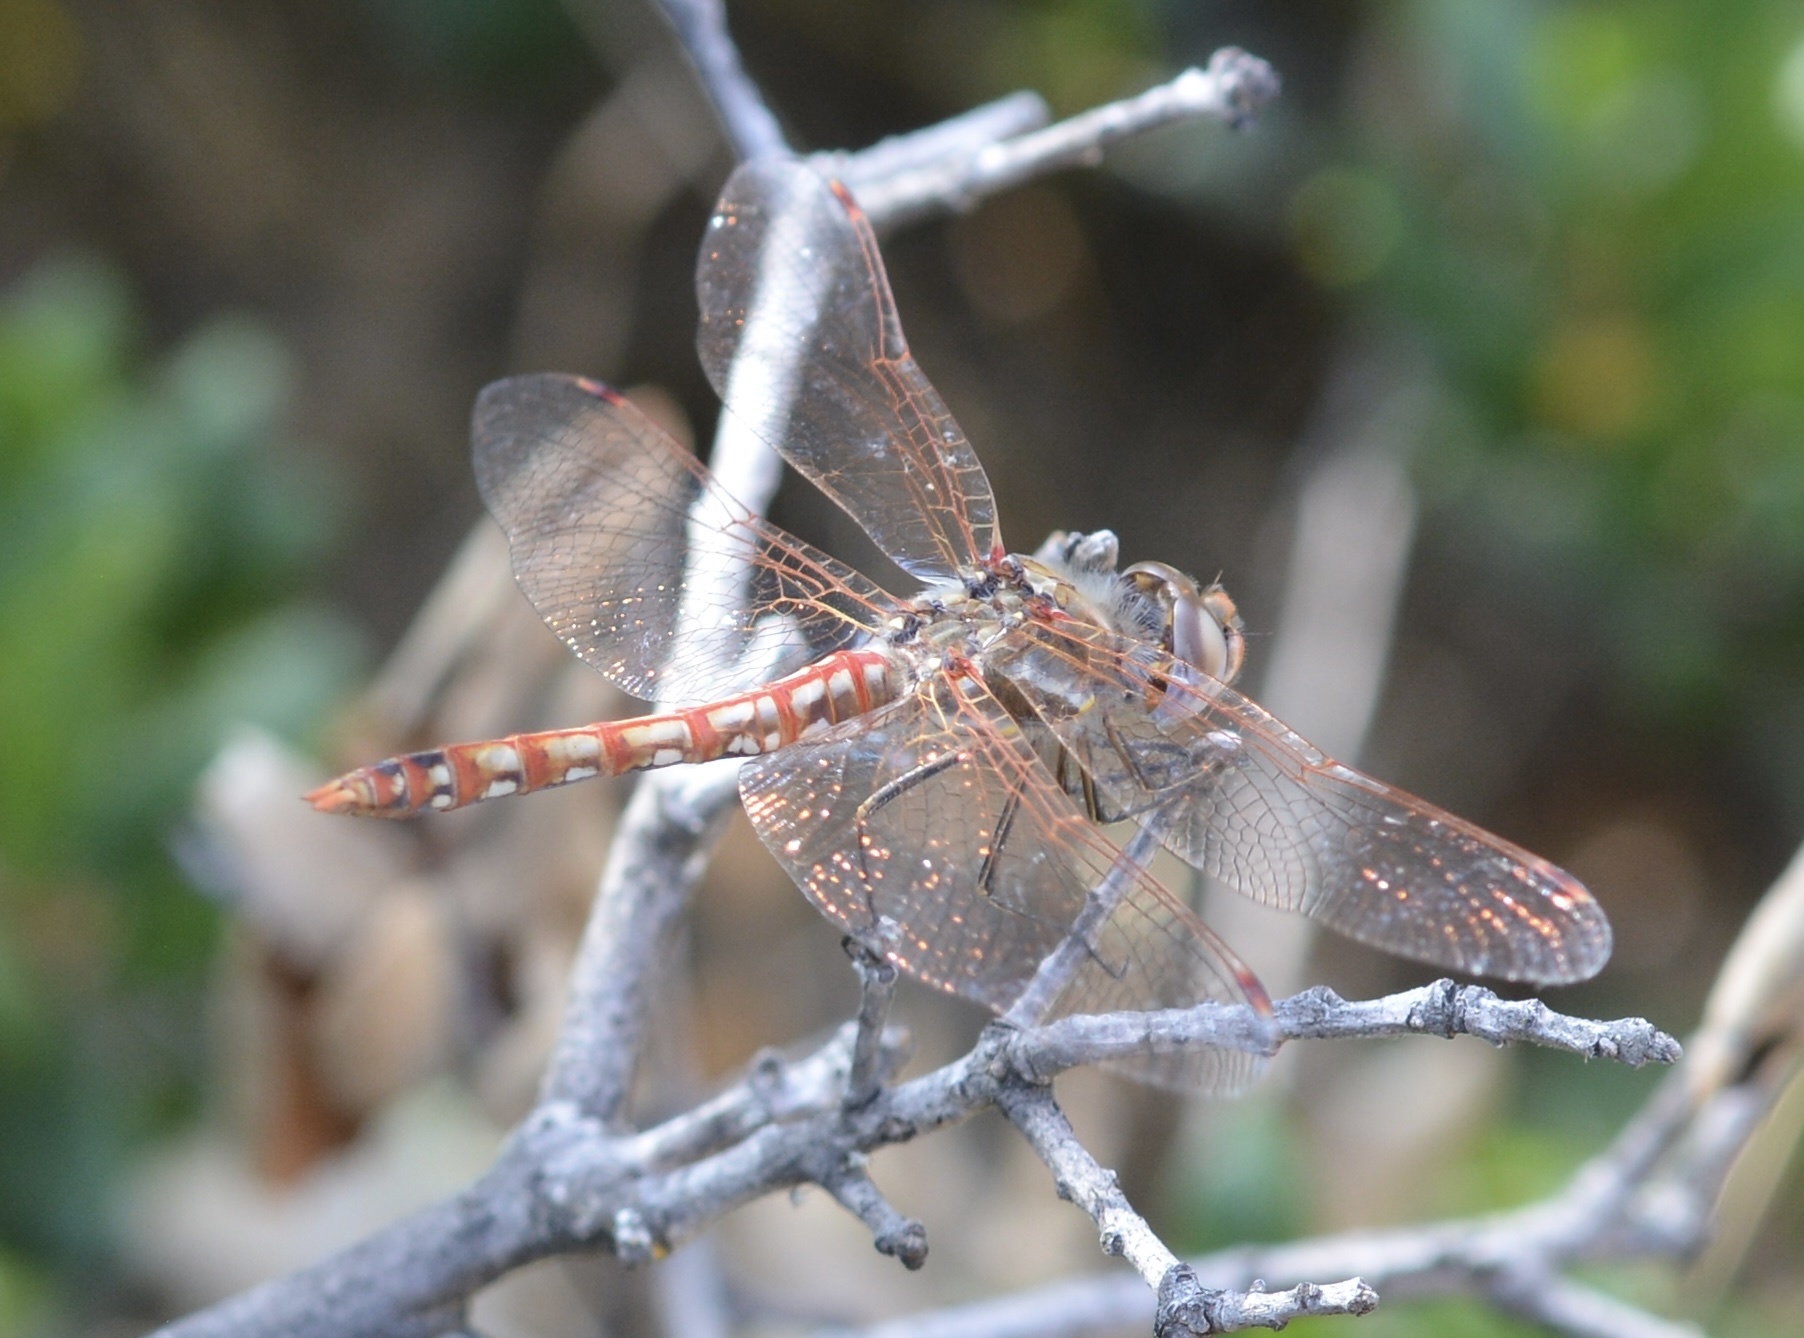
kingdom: Animalia
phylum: Arthropoda
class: Insecta
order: Odonata
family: Libellulidae
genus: Sympetrum
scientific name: Sympetrum corruptum
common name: Variegated meadowhawk
